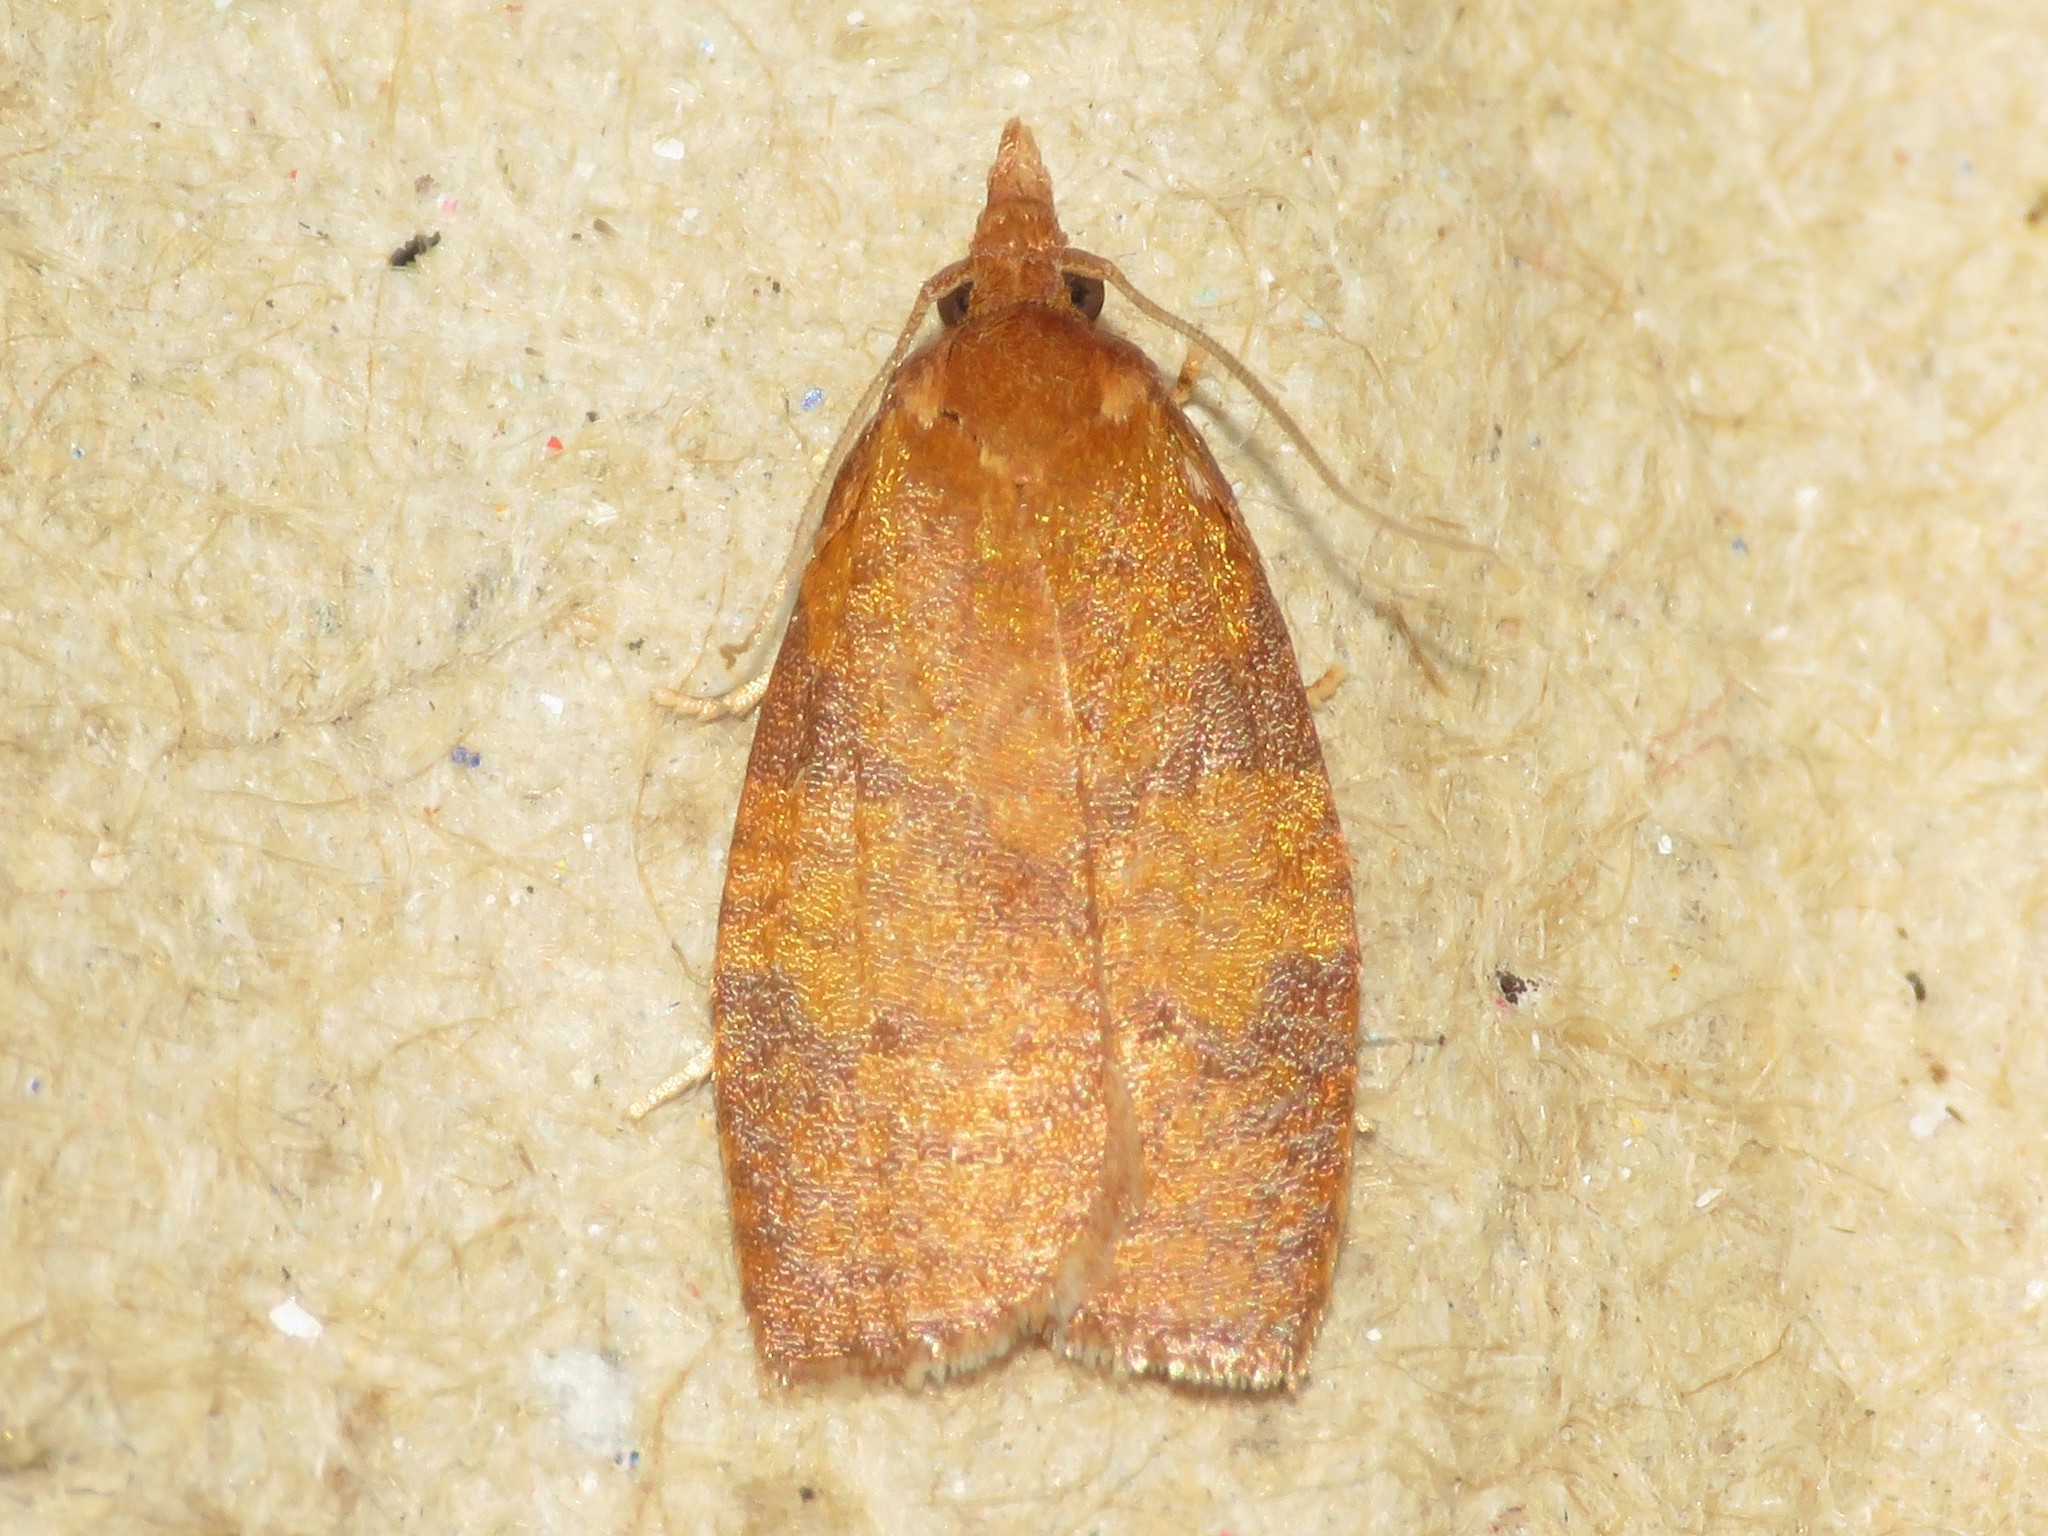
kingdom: Animalia
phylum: Arthropoda
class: Insecta
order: Lepidoptera
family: Tortricidae
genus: Cenopis
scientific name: Cenopis directana
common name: Chokecherry leafroller moth
